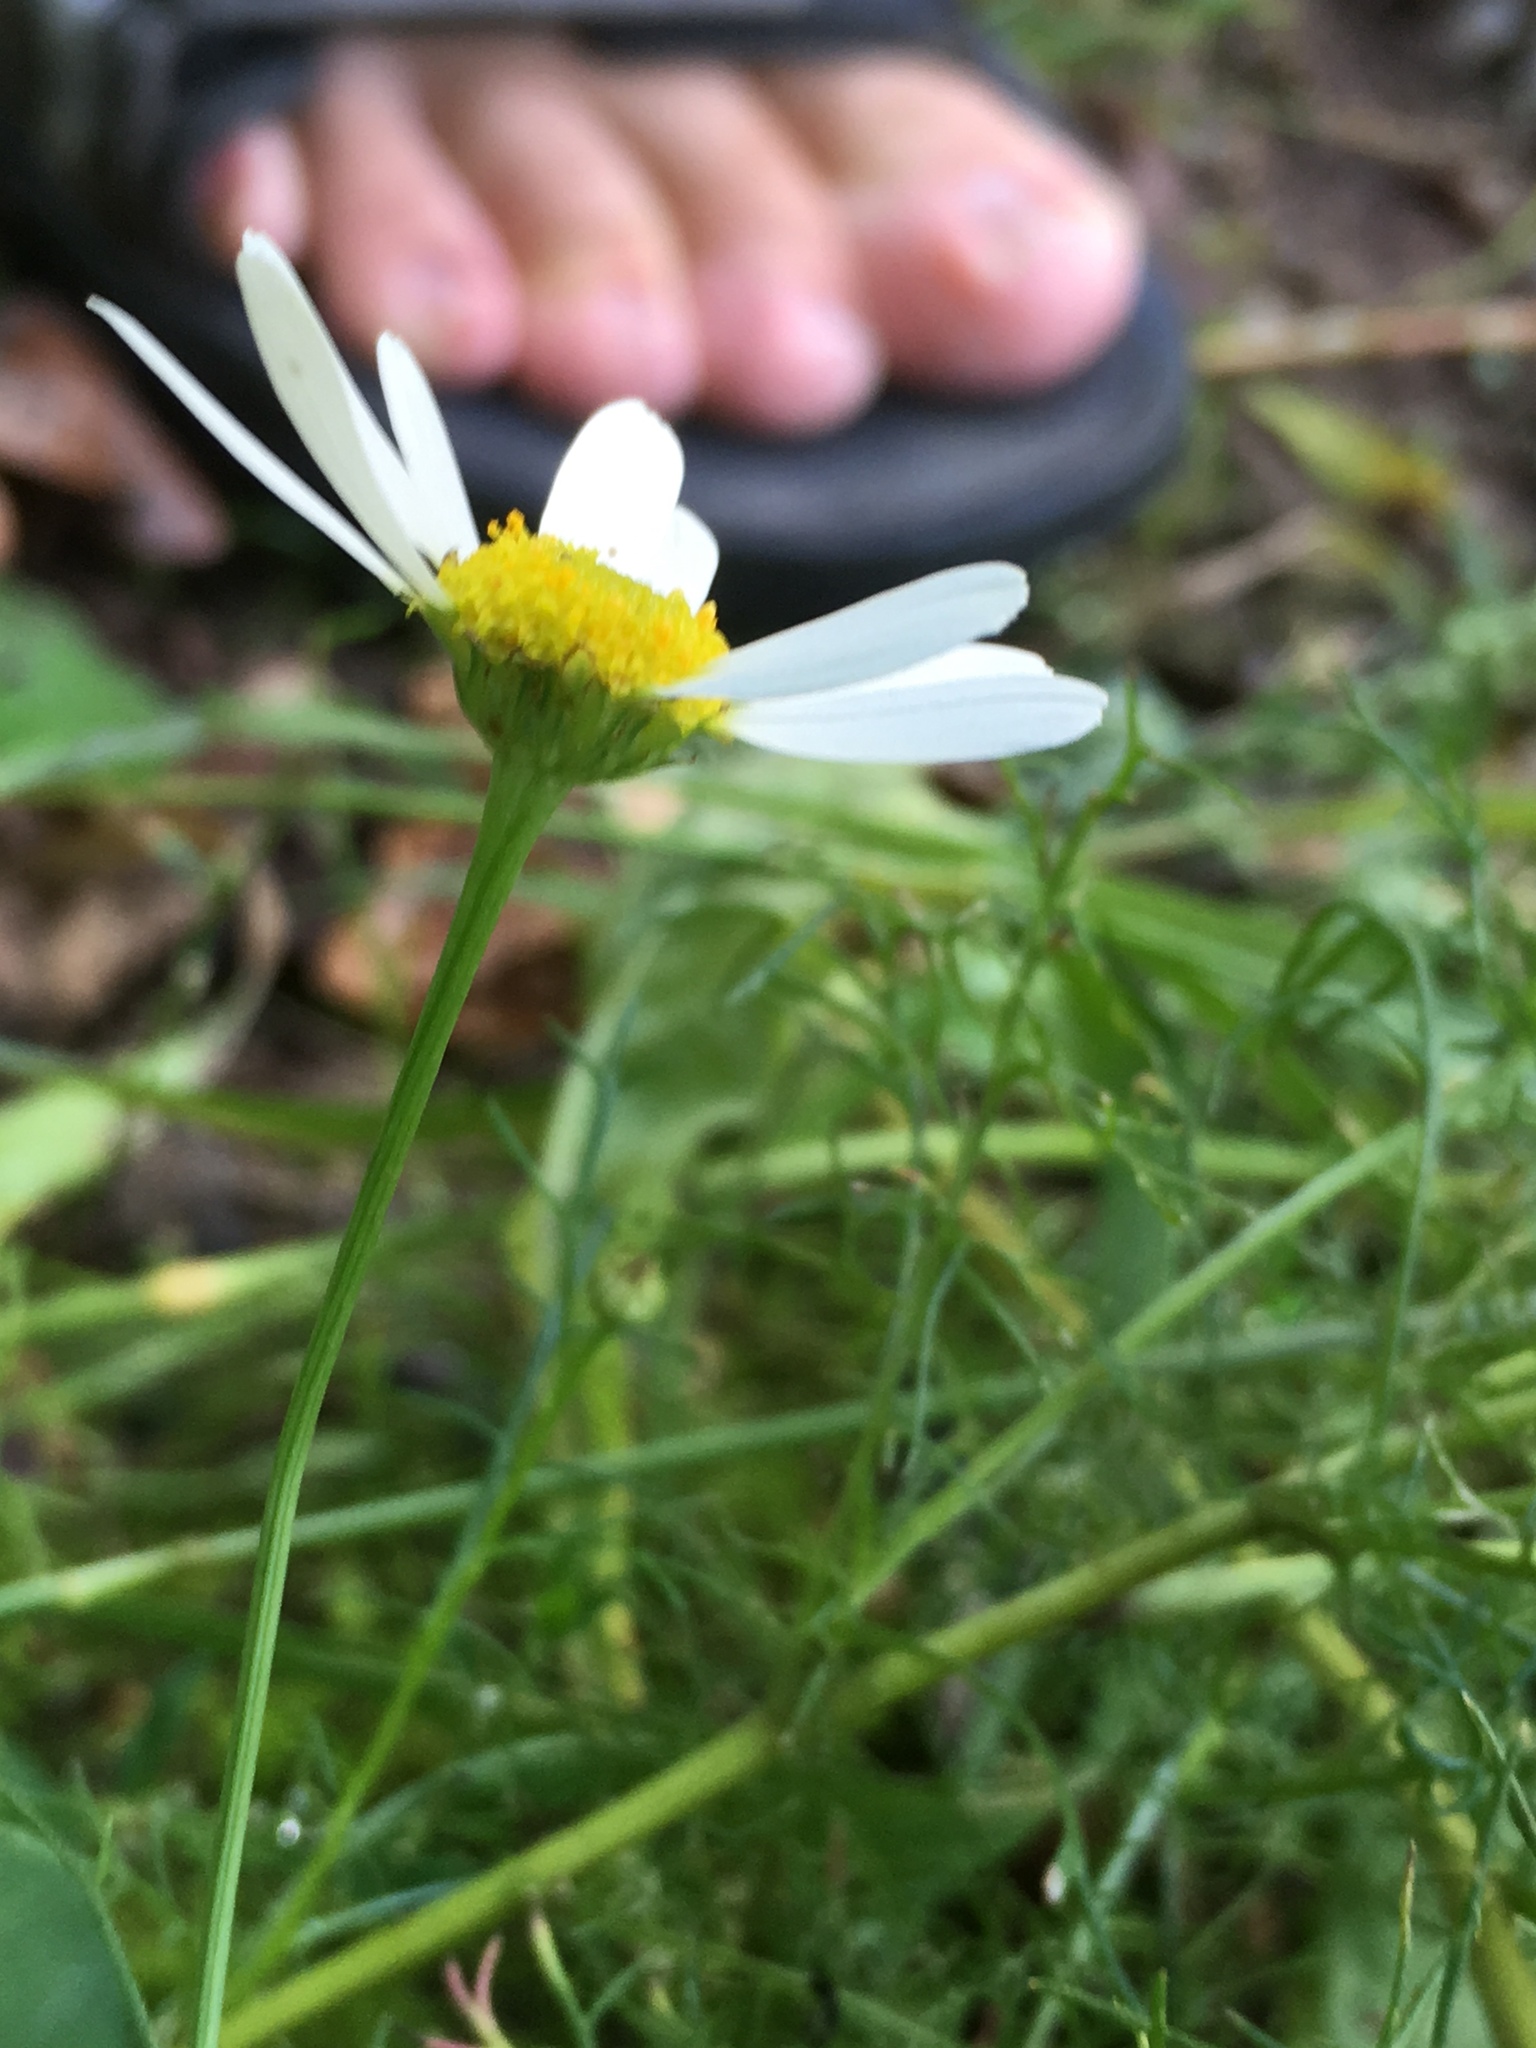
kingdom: Plantae
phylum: Tracheophyta
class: Magnoliopsida
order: Asterales
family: Asteraceae
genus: Matricaria
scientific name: Matricaria chamomilla
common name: Scented mayweed
